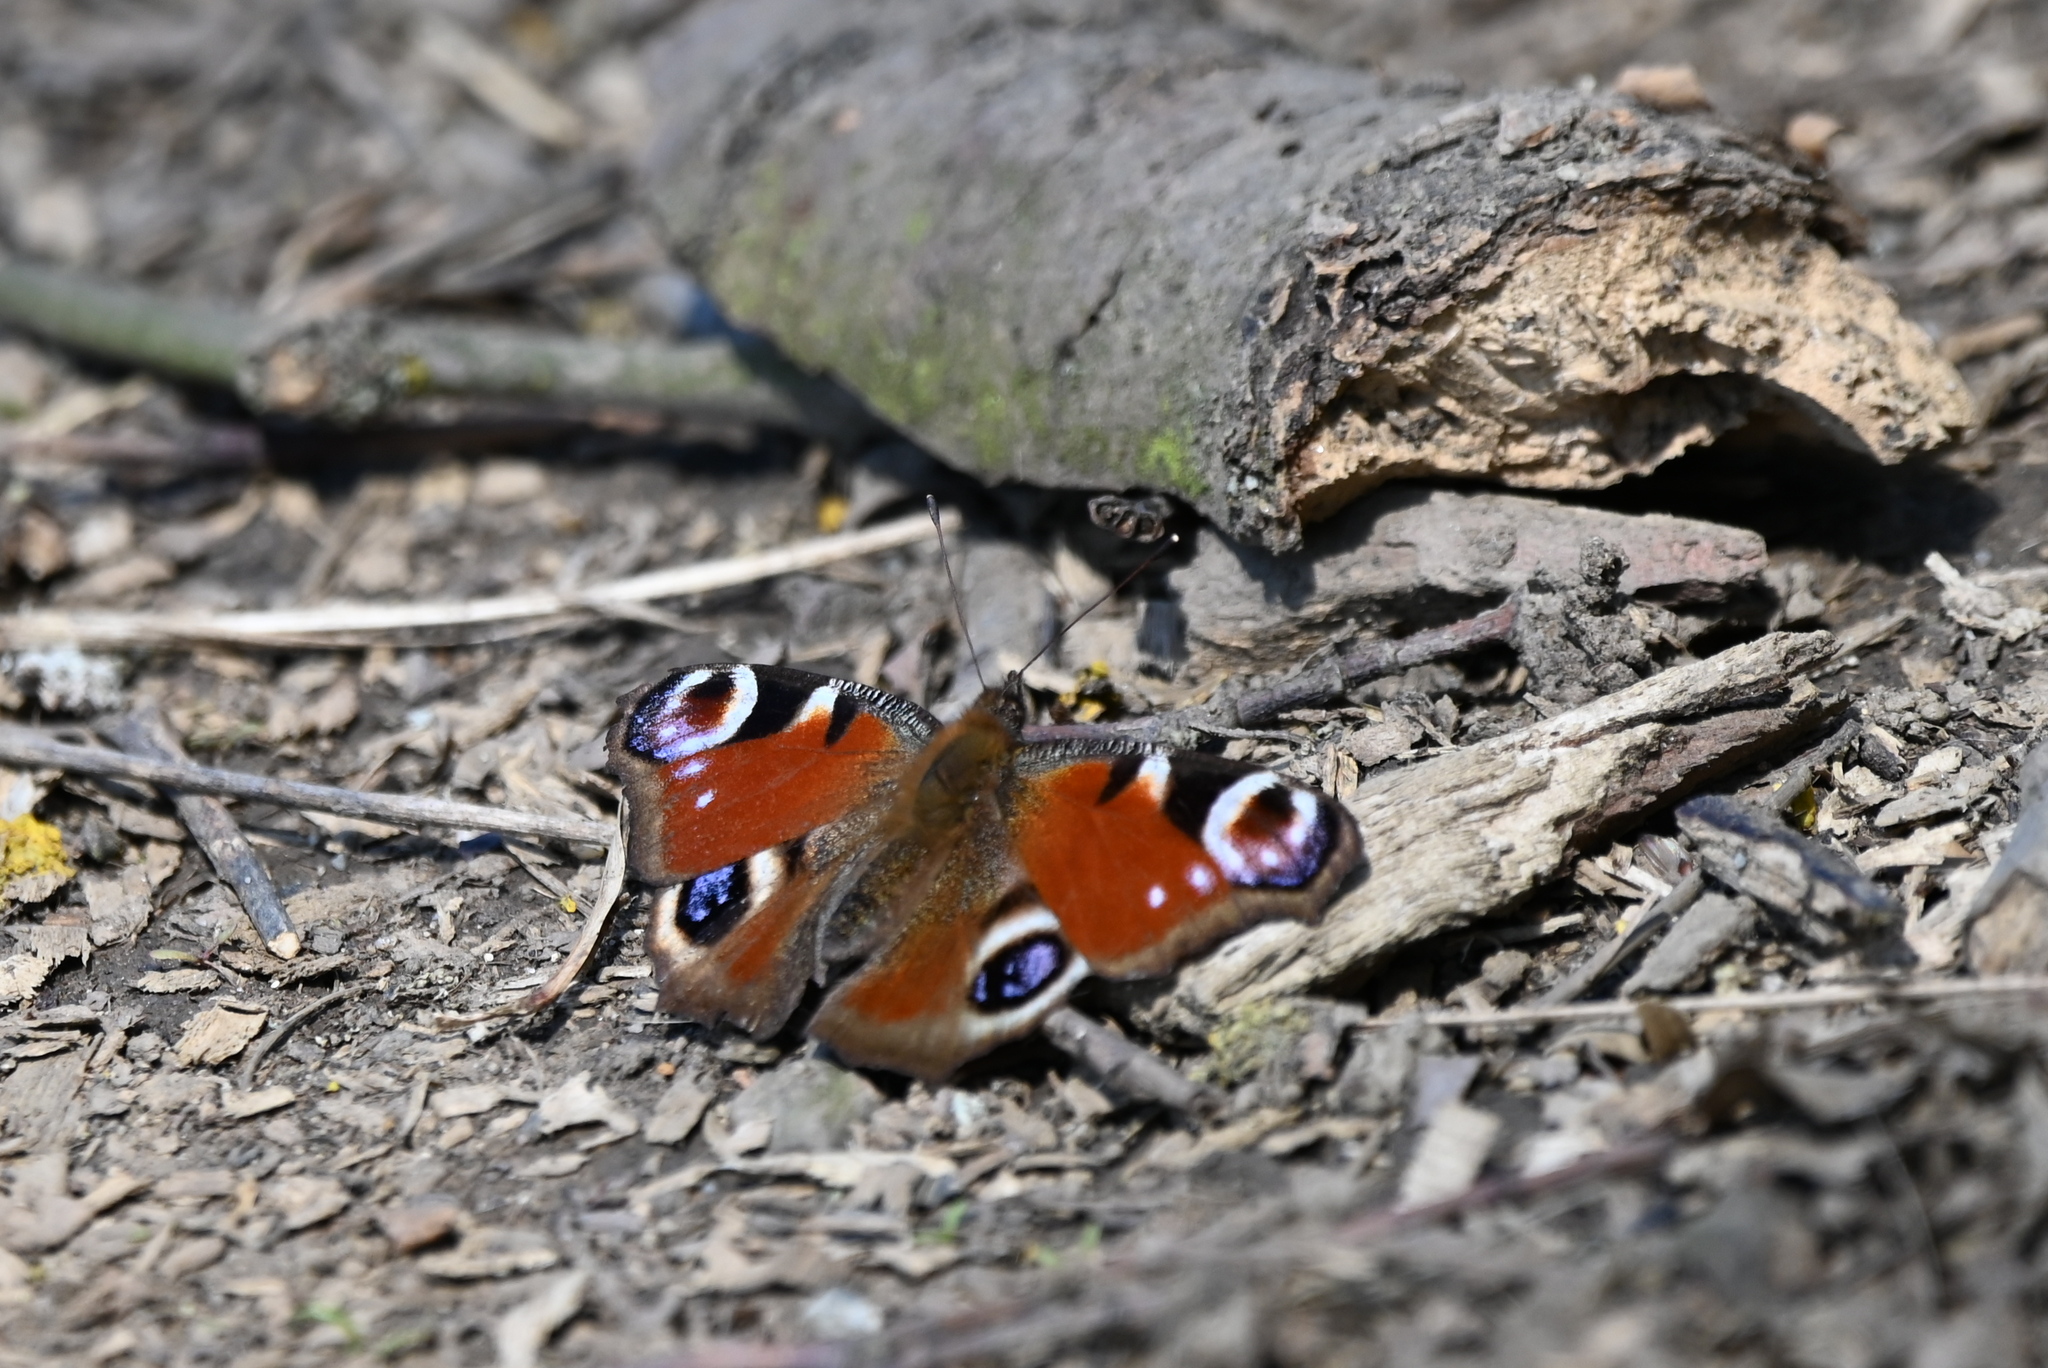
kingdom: Animalia
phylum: Arthropoda
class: Insecta
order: Lepidoptera
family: Nymphalidae
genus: Aglais
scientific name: Aglais io
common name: Peacock
